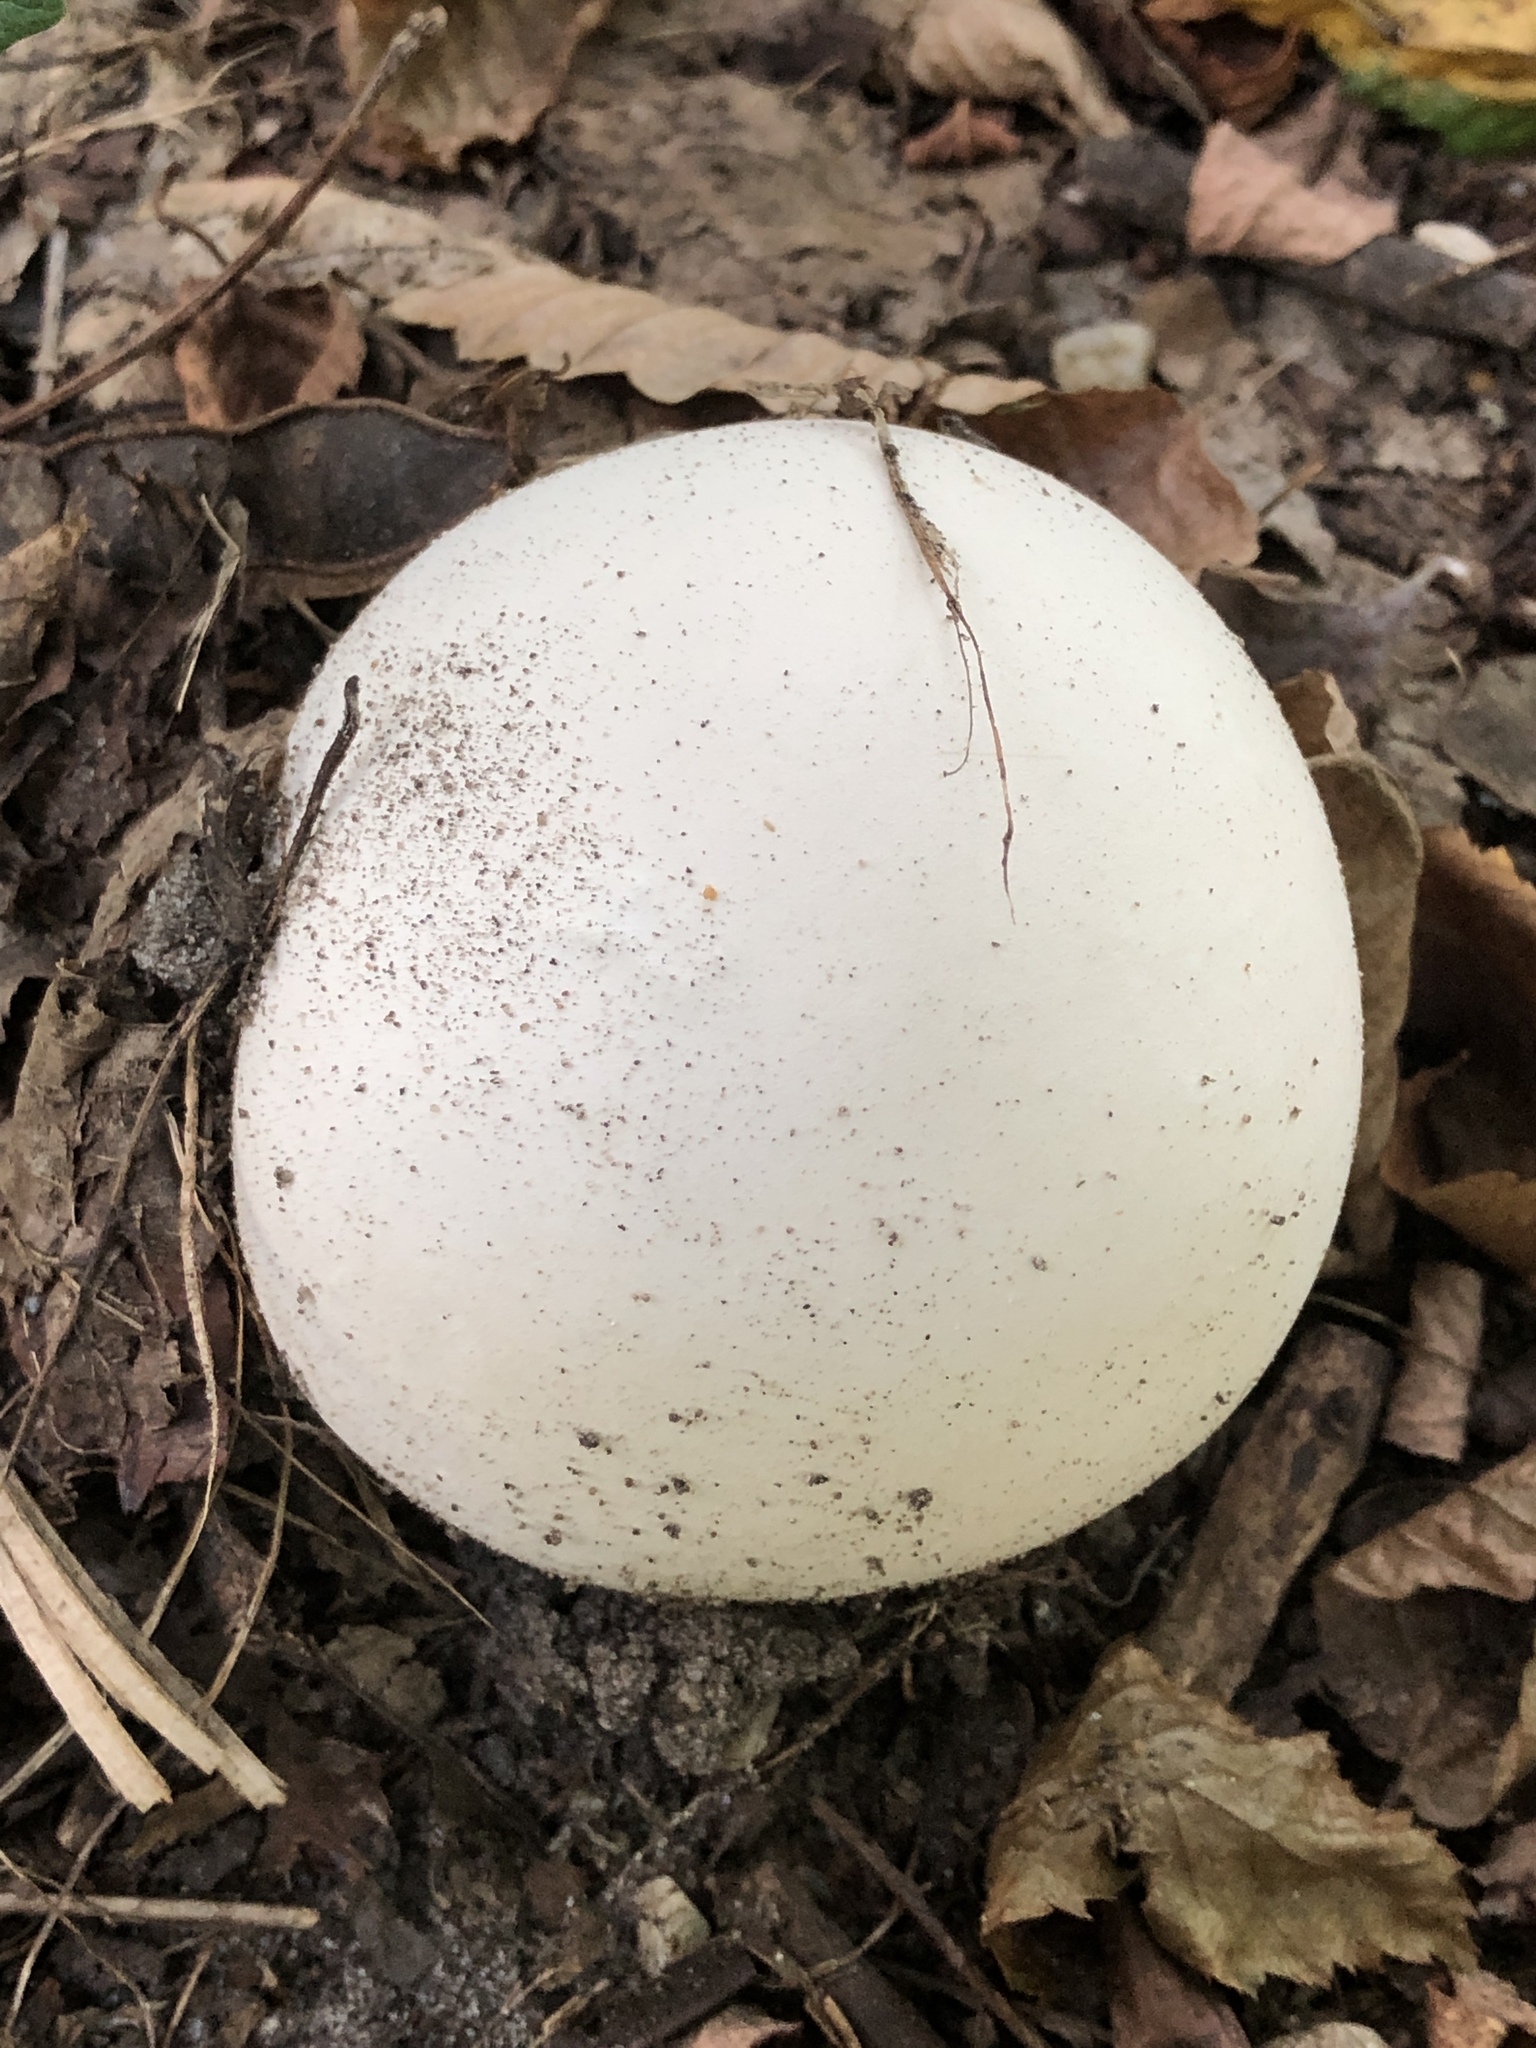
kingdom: Fungi
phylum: Basidiomycota
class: Agaricomycetes
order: Agaricales
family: Lycoperdaceae
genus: Calvatia
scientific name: Calvatia gigantea
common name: Giant puffball
